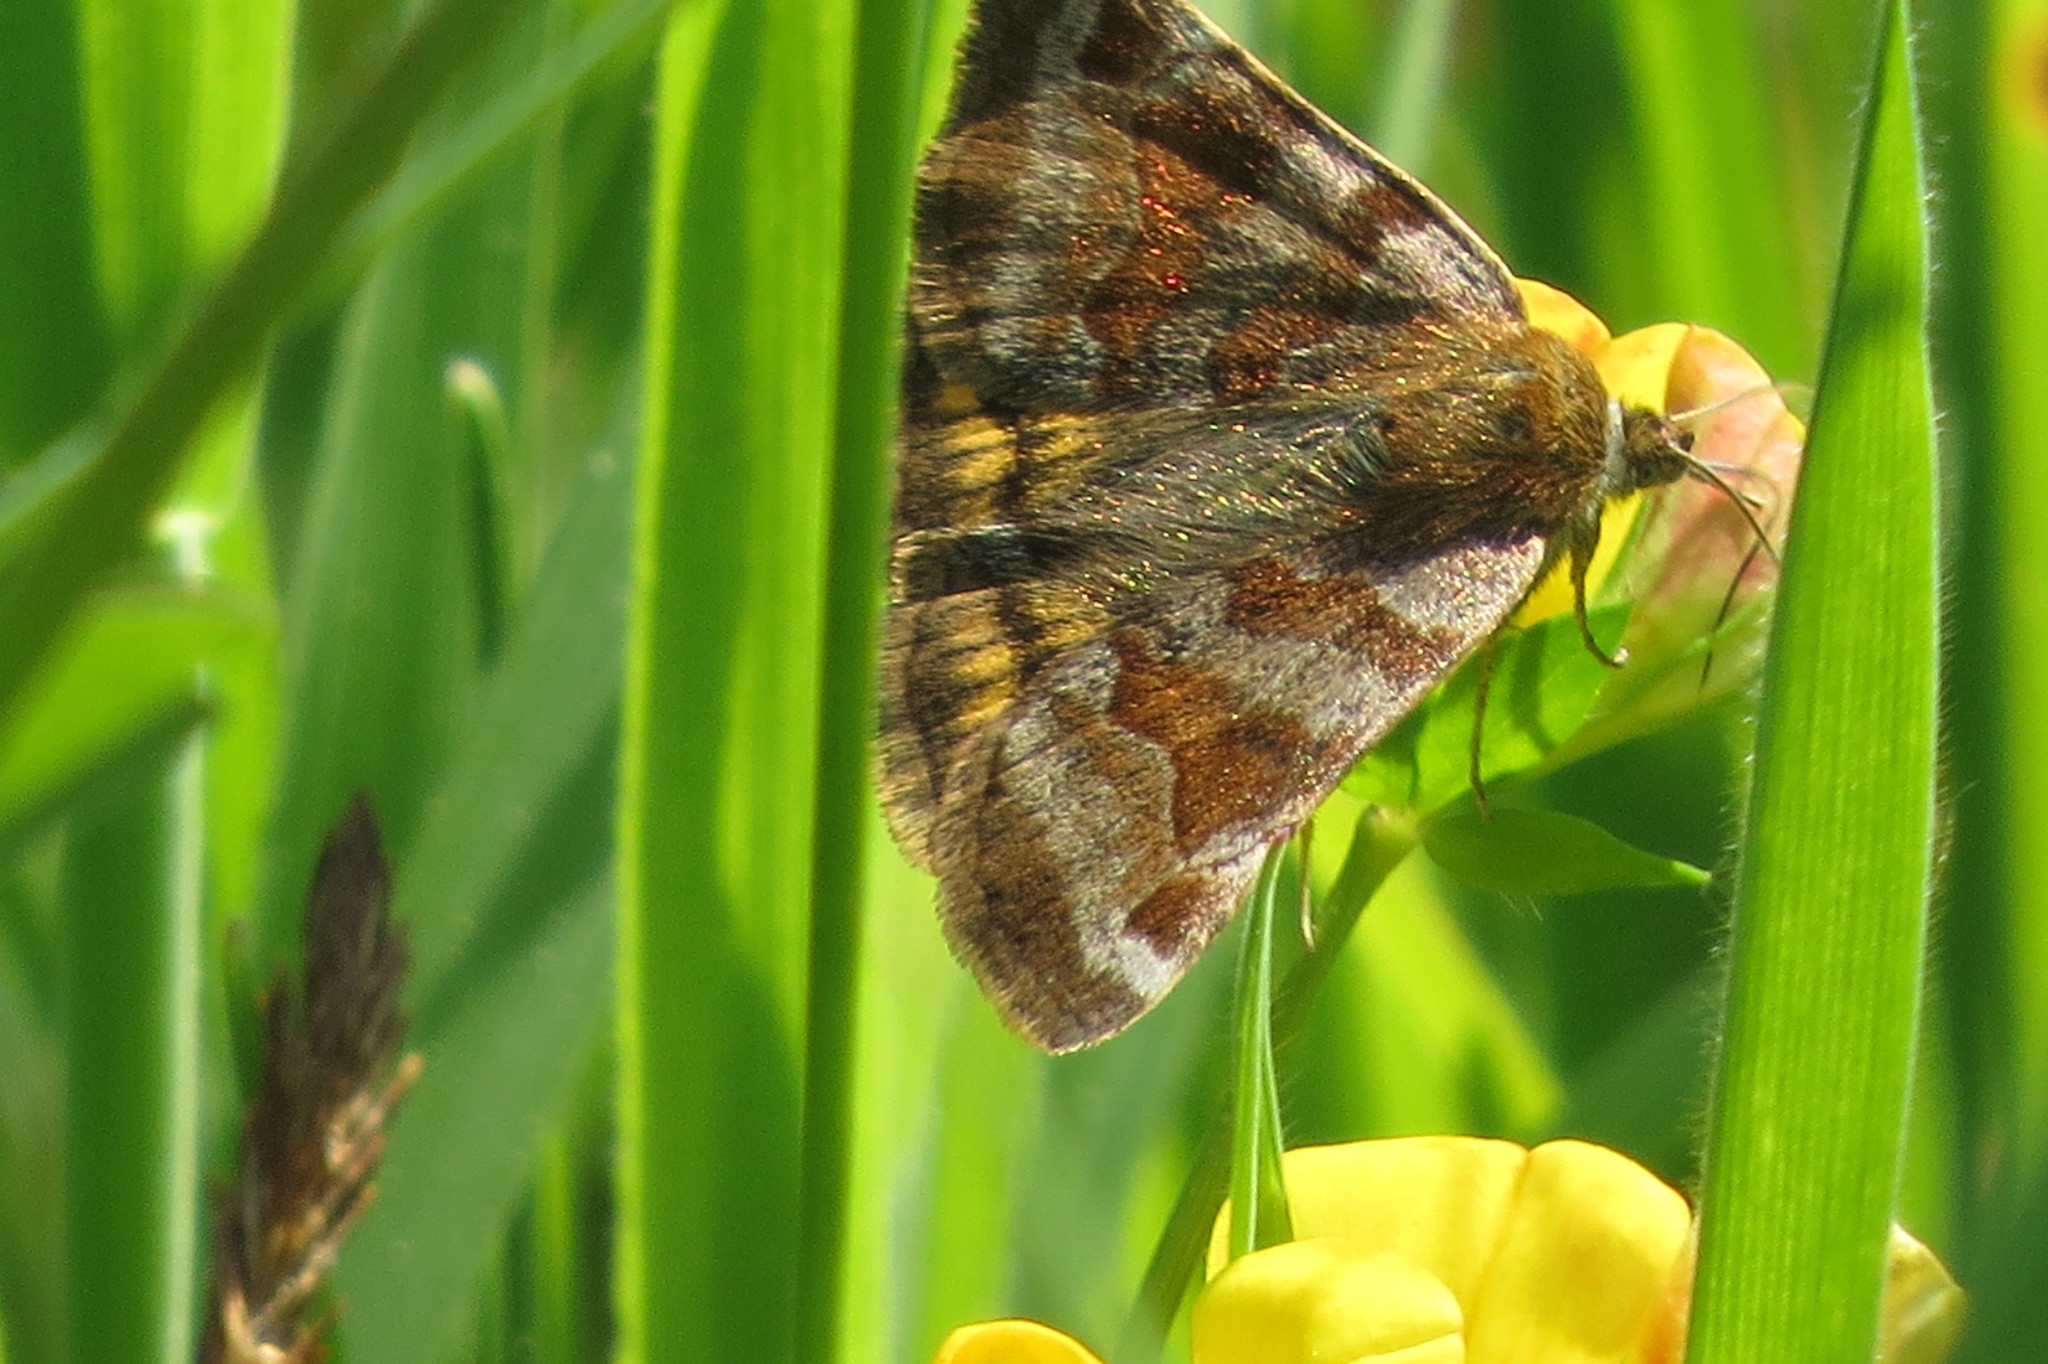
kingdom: Animalia
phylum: Arthropoda
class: Insecta
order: Lepidoptera
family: Erebidae
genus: Euclidia
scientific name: Euclidia glyphica
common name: Burnet companion
